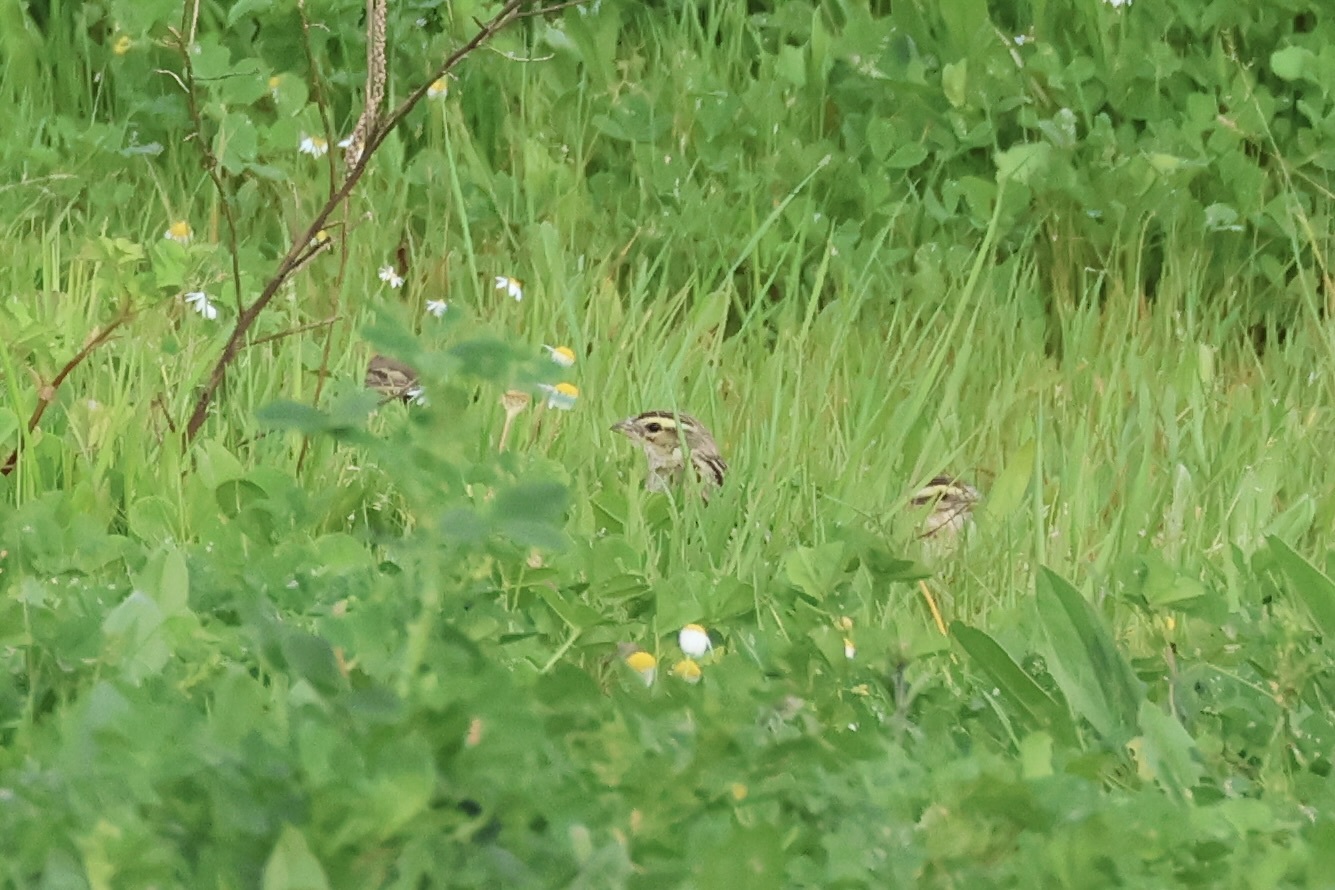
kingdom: Animalia
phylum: Chordata
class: Aves
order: Passeriformes
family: Ploceidae
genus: Euplectes
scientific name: Euplectes afer
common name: Yellow-crowned bishop
